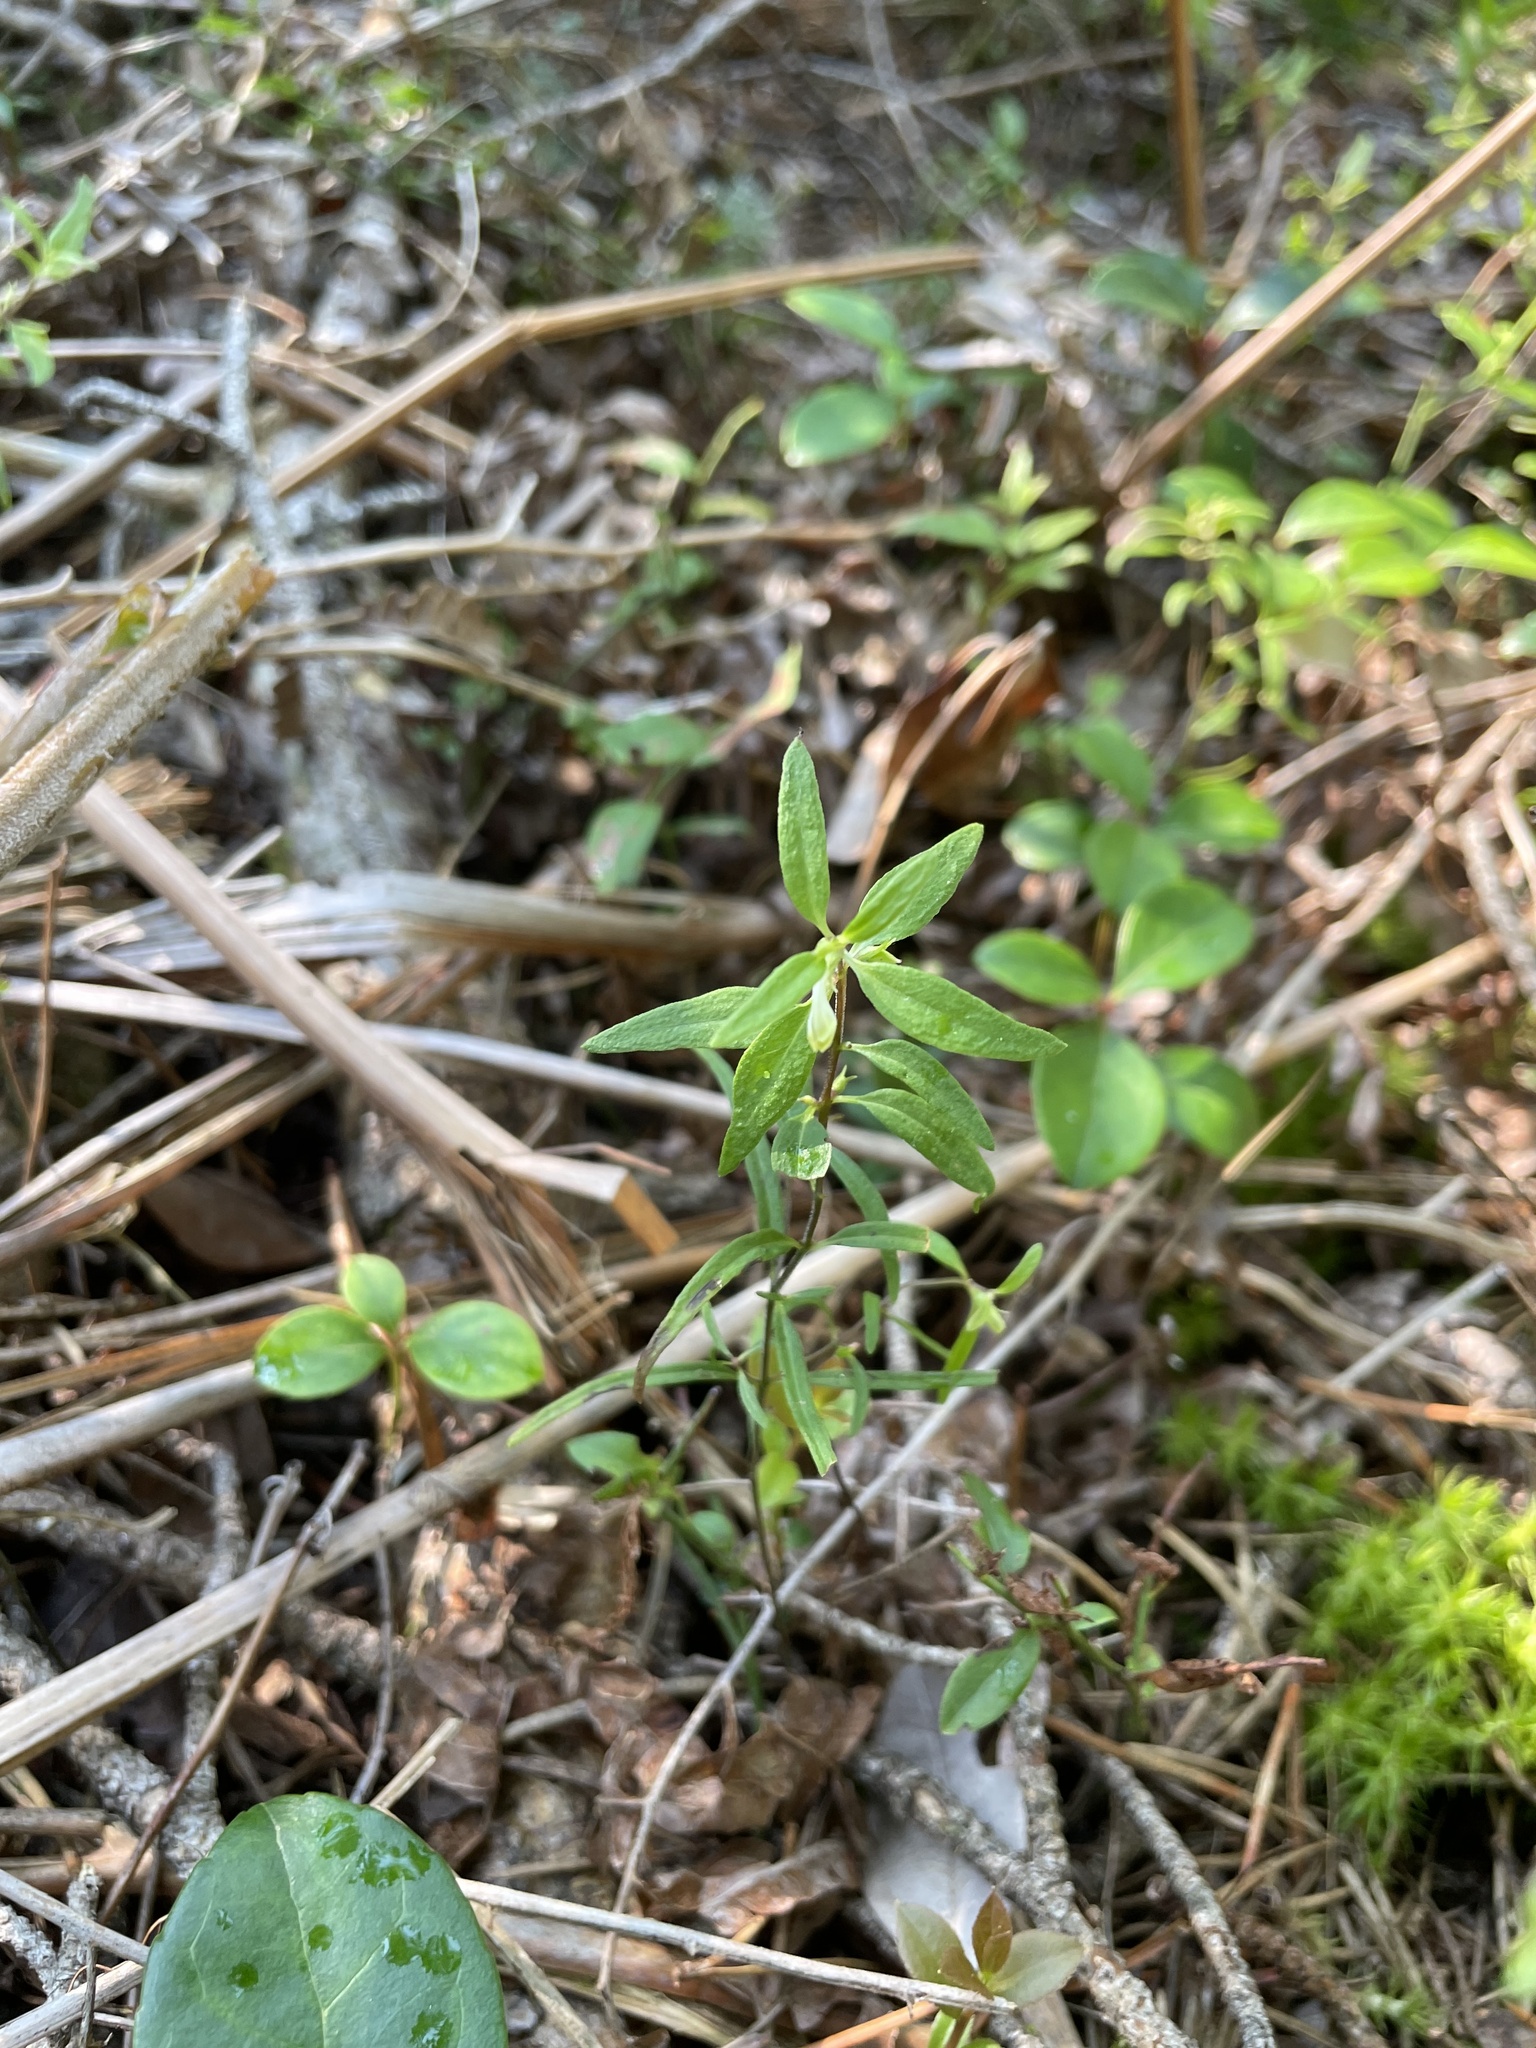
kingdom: Plantae
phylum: Tracheophyta
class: Magnoliopsida
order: Lamiales
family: Orobanchaceae
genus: Melampyrum
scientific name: Melampyrum lineare
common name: American cow-wheat
